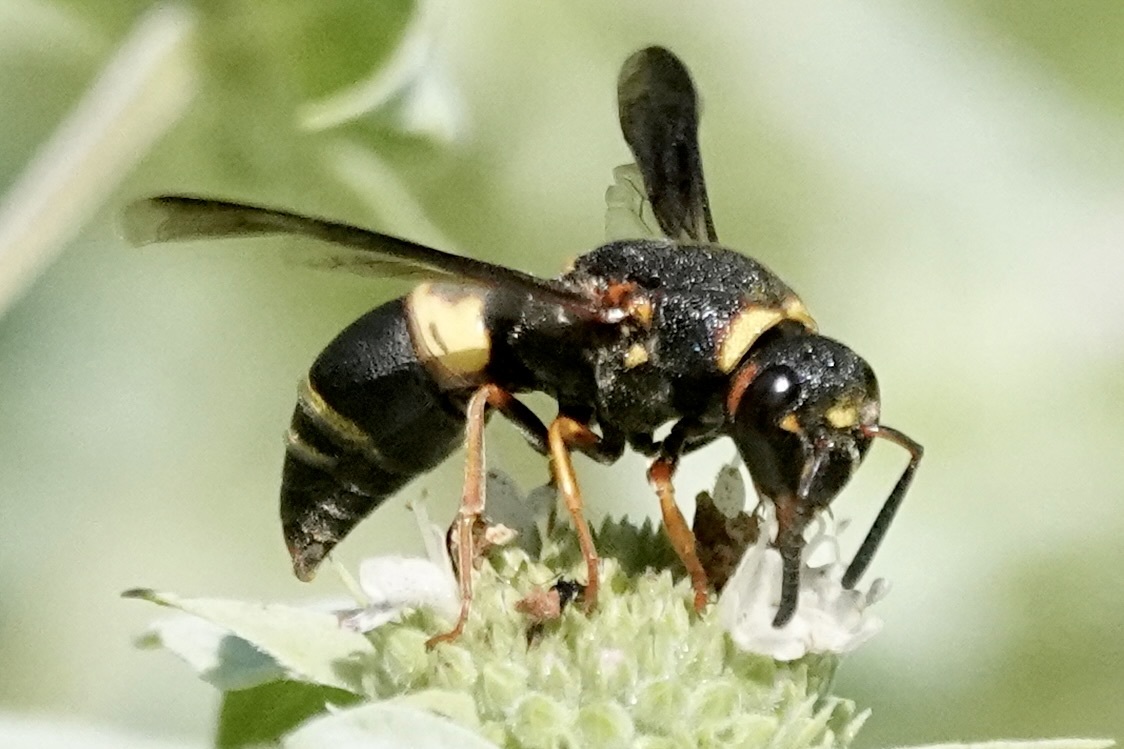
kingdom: Animalia
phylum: Arthropoda
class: Insecta
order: Hymenoptera
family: Eumenidae
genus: Euodynerus
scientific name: Euodynerus hidalgo
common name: Wasp
